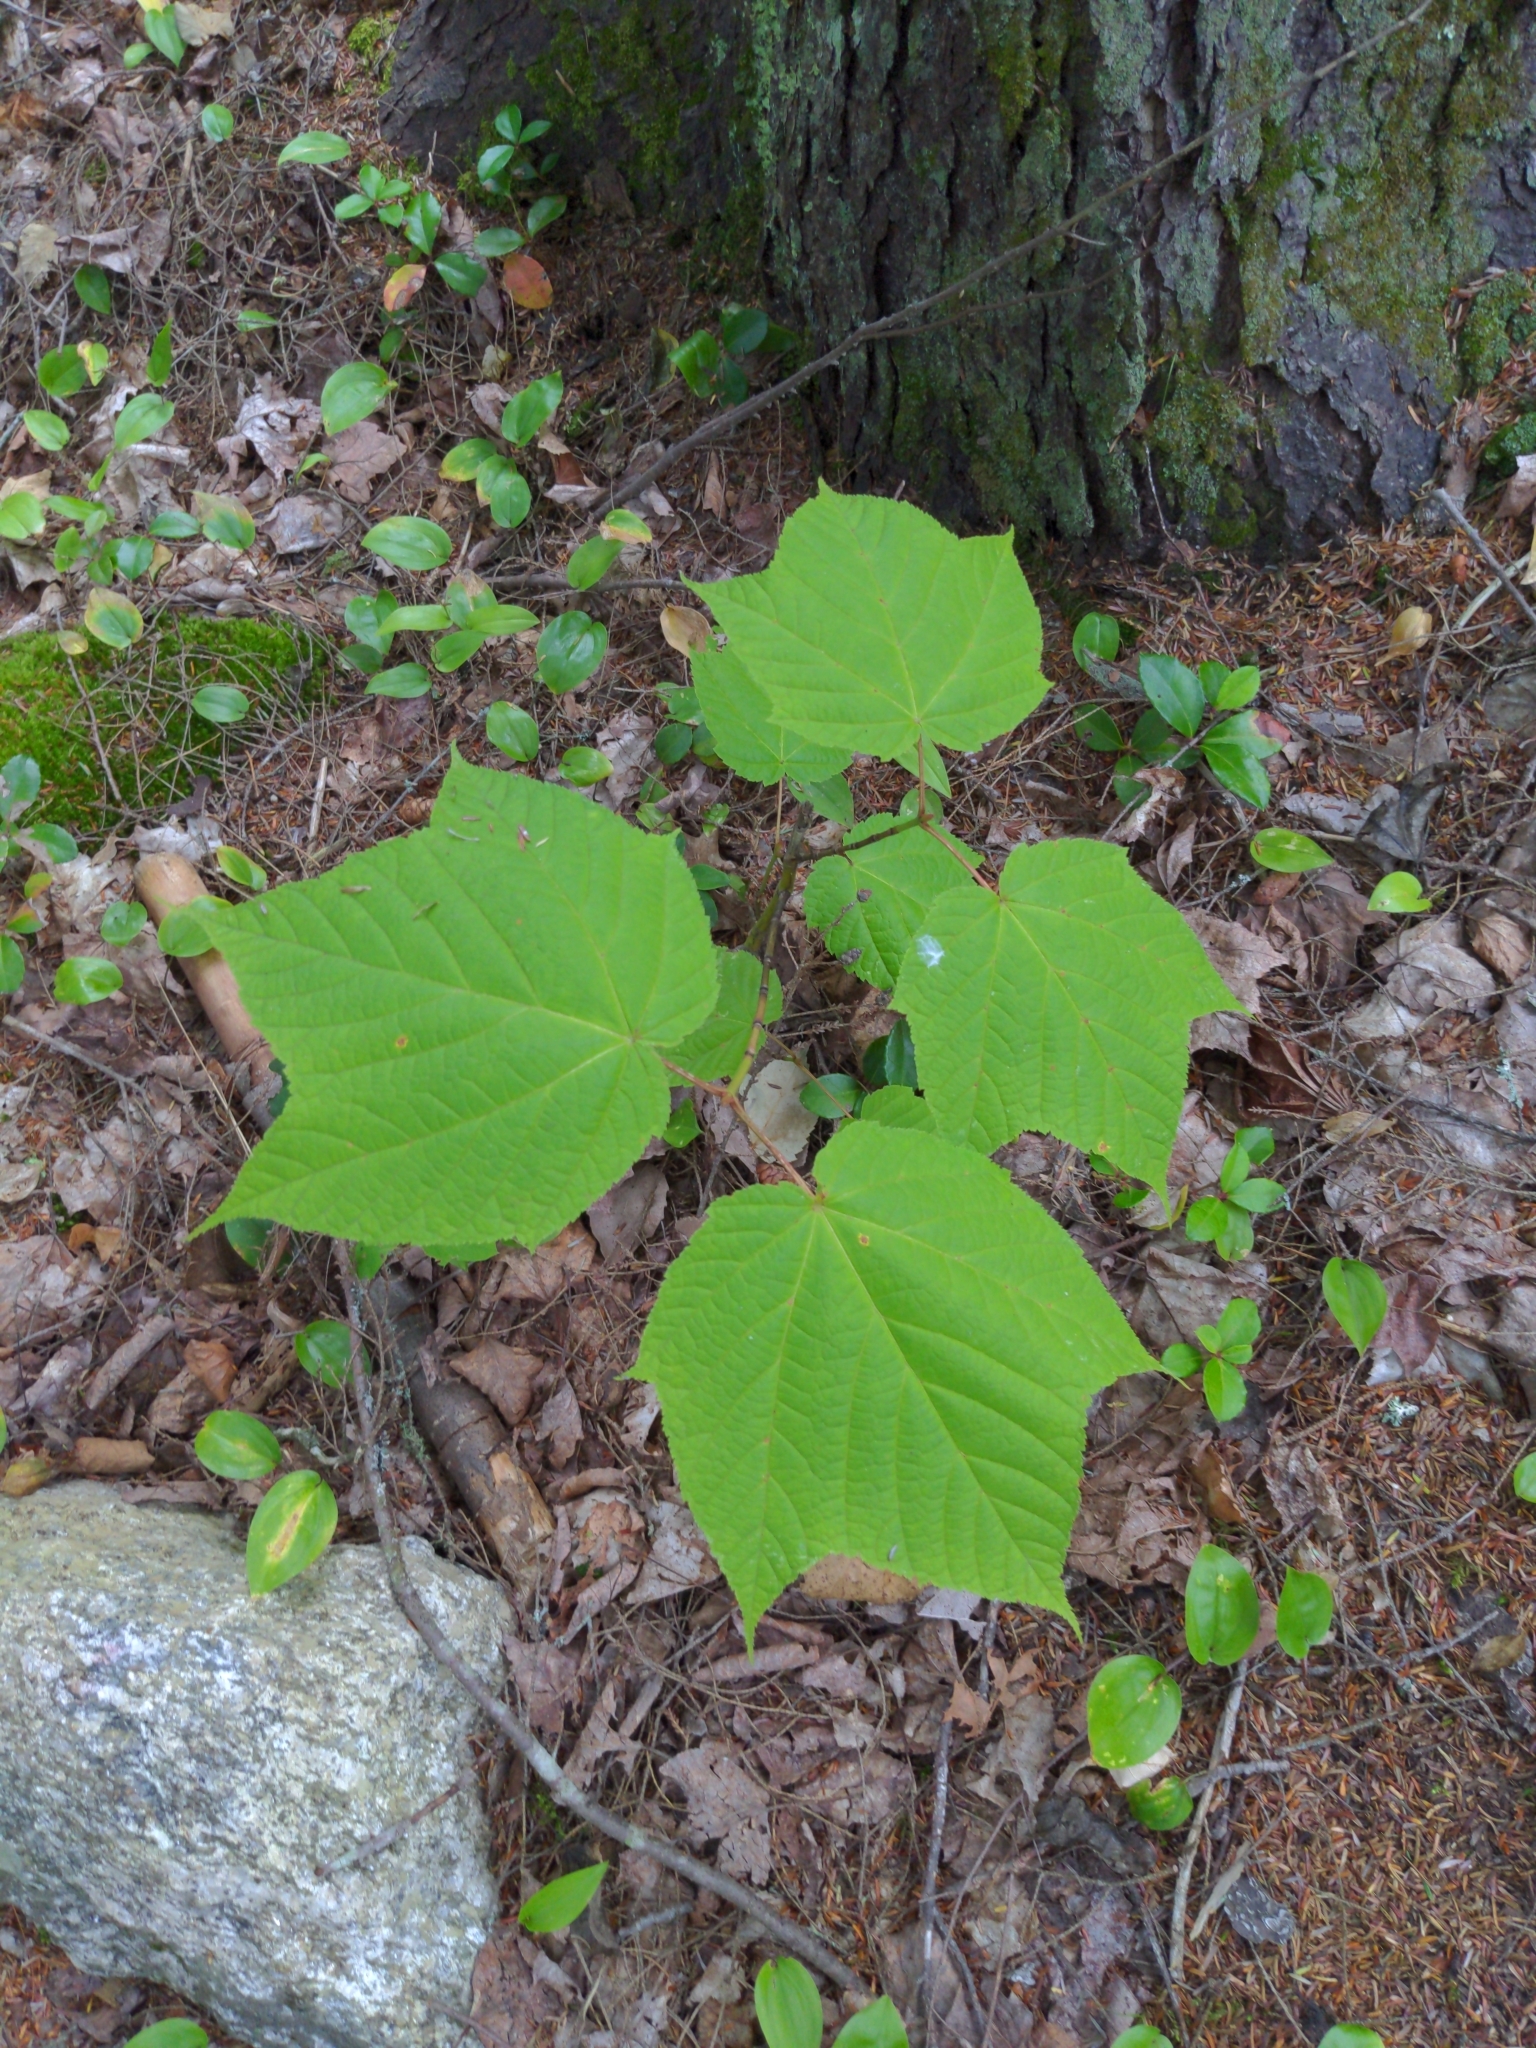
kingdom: Plantae
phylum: Tracheophyta
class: Magnoliopsida
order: Sapindales
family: Sapindaceae
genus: Acer
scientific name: Acer pensylvanicum
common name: Moosewood
